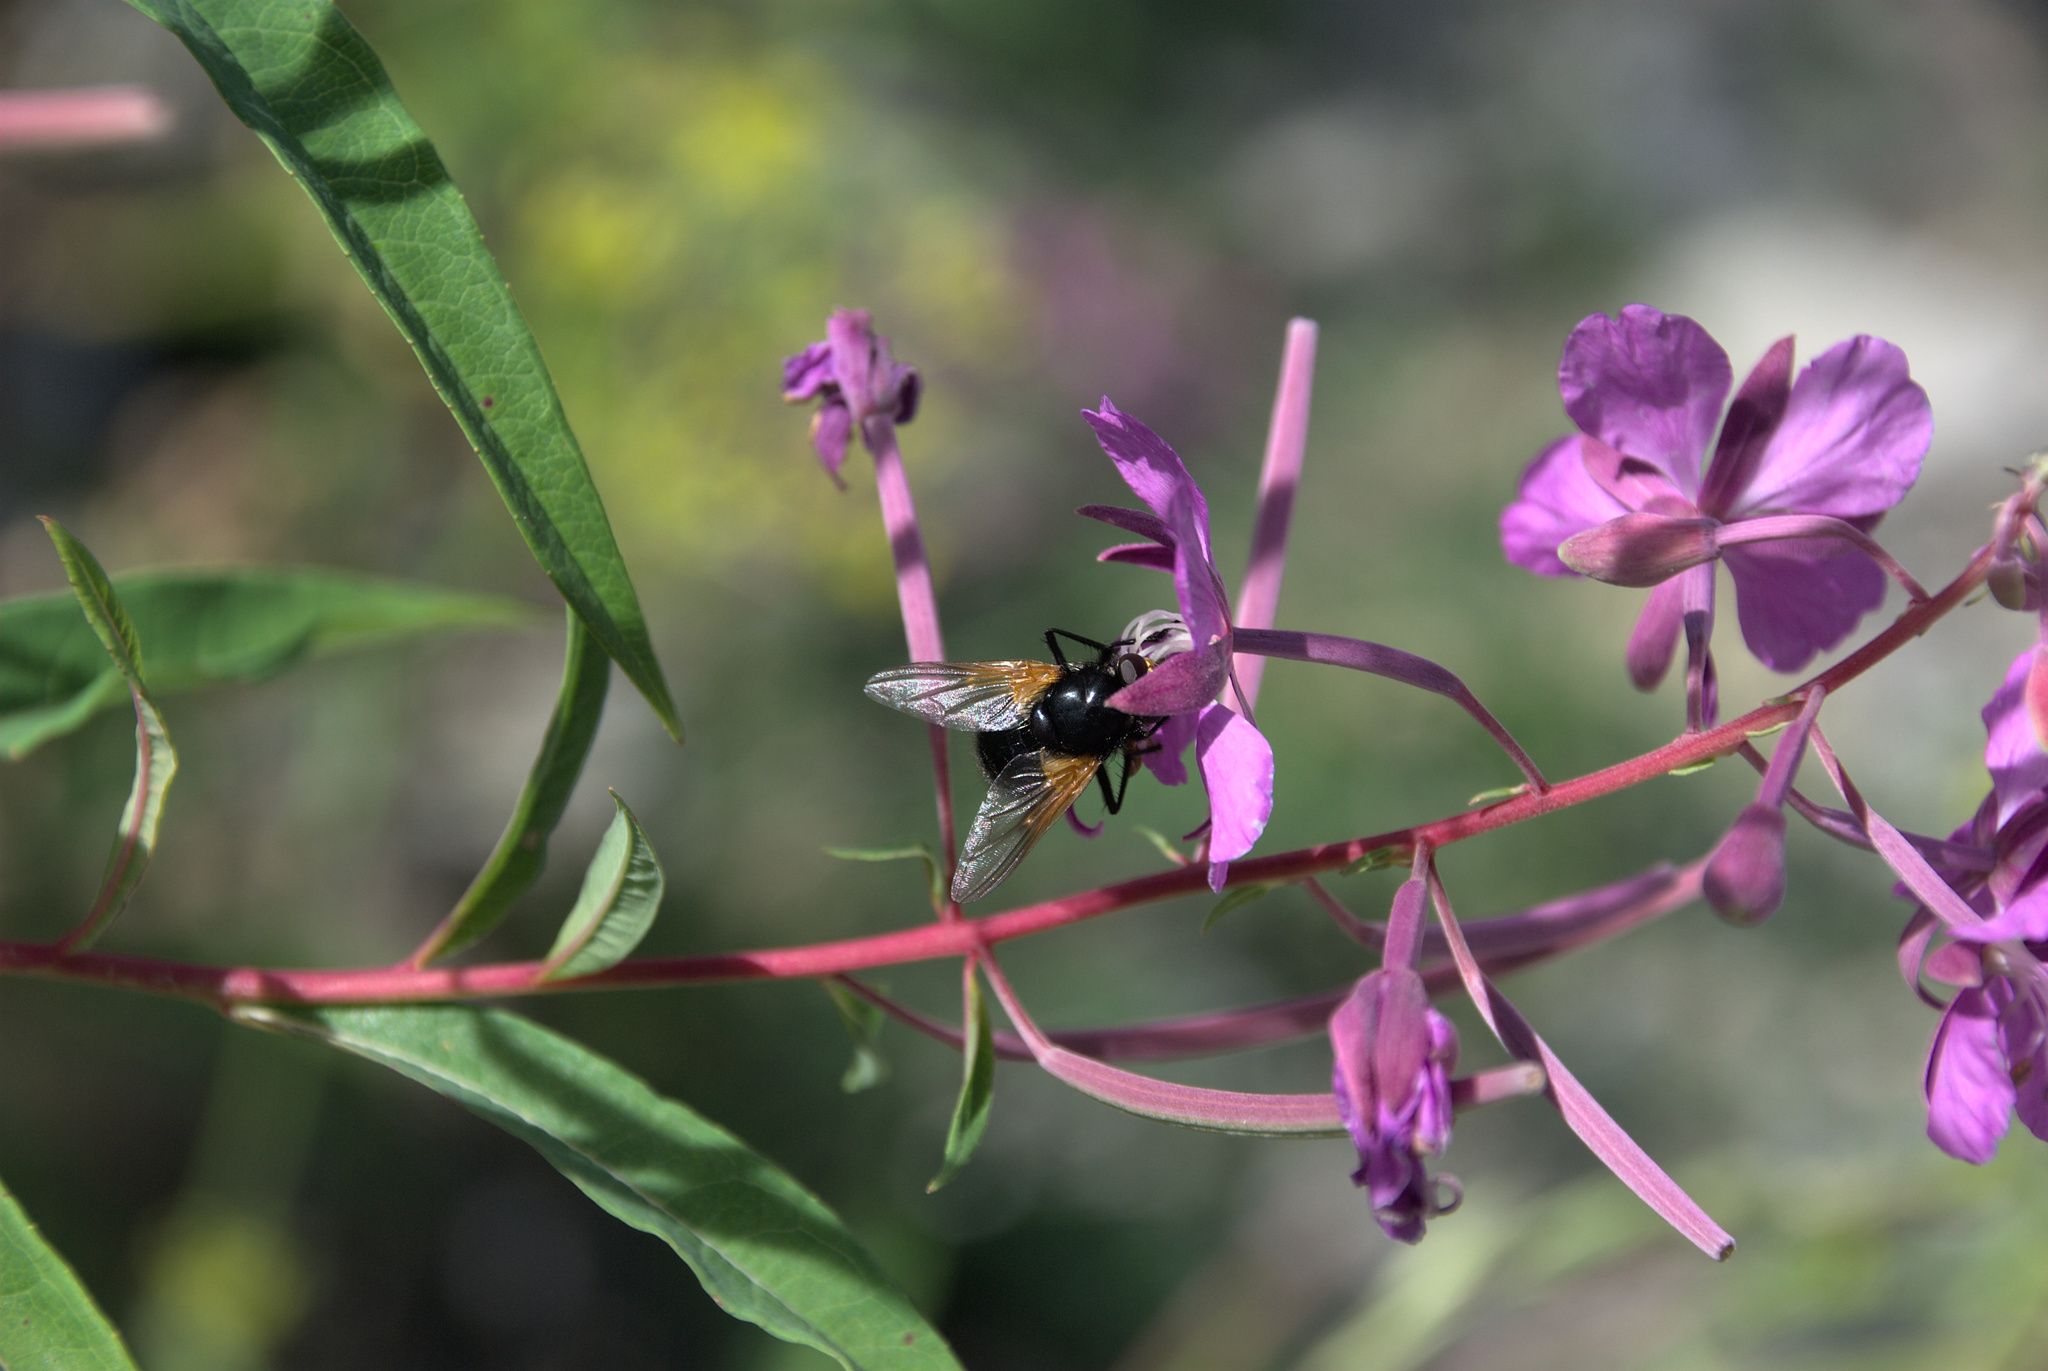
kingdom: Animalia
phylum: Arthropoda
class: Insecta
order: Diptera
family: Muscidae
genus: Mesembrina
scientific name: Mesembrina meridiana
